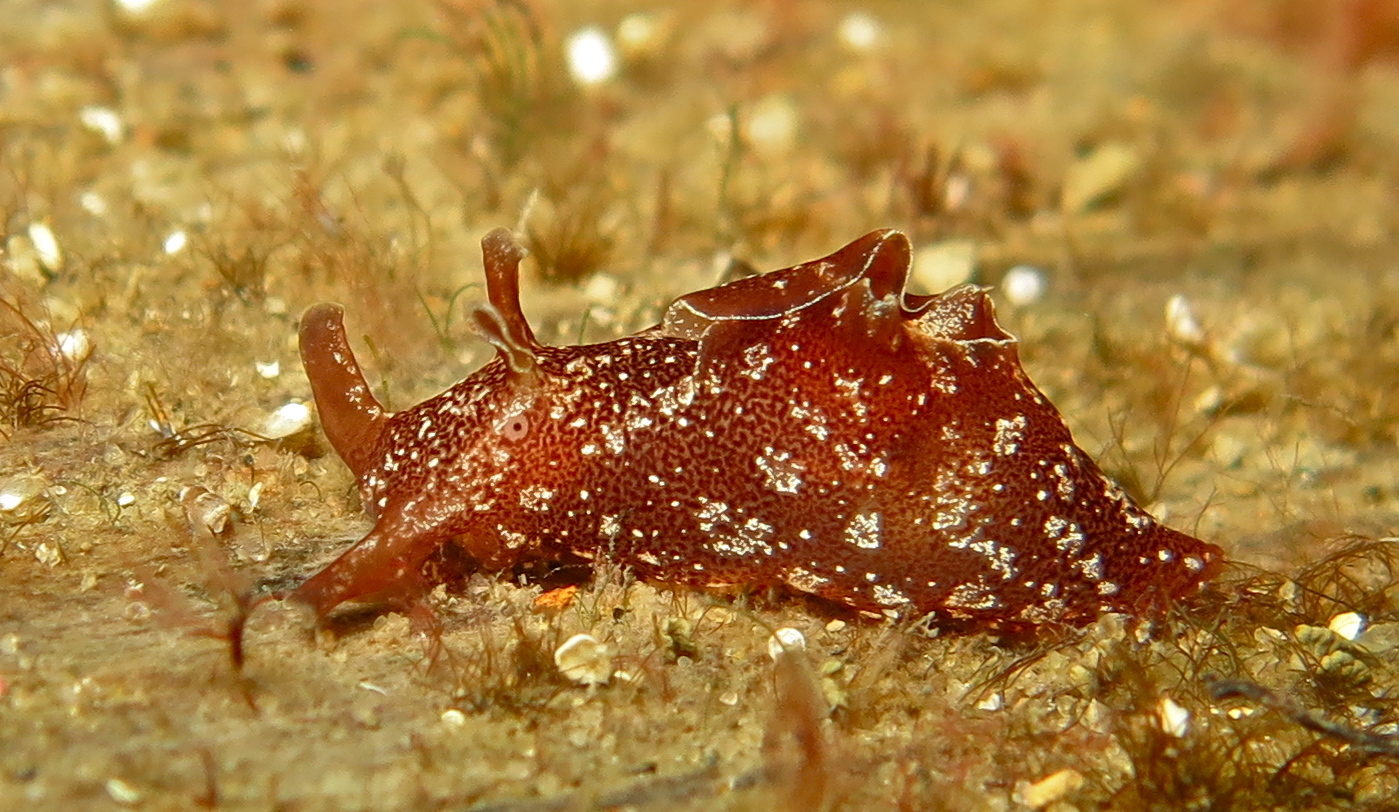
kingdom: Animalia
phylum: Mollusca
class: Gastropoda
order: Aplysiida
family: Aplysiidae
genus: Aplysia
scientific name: Aplysia punctata
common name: Common sea hare
